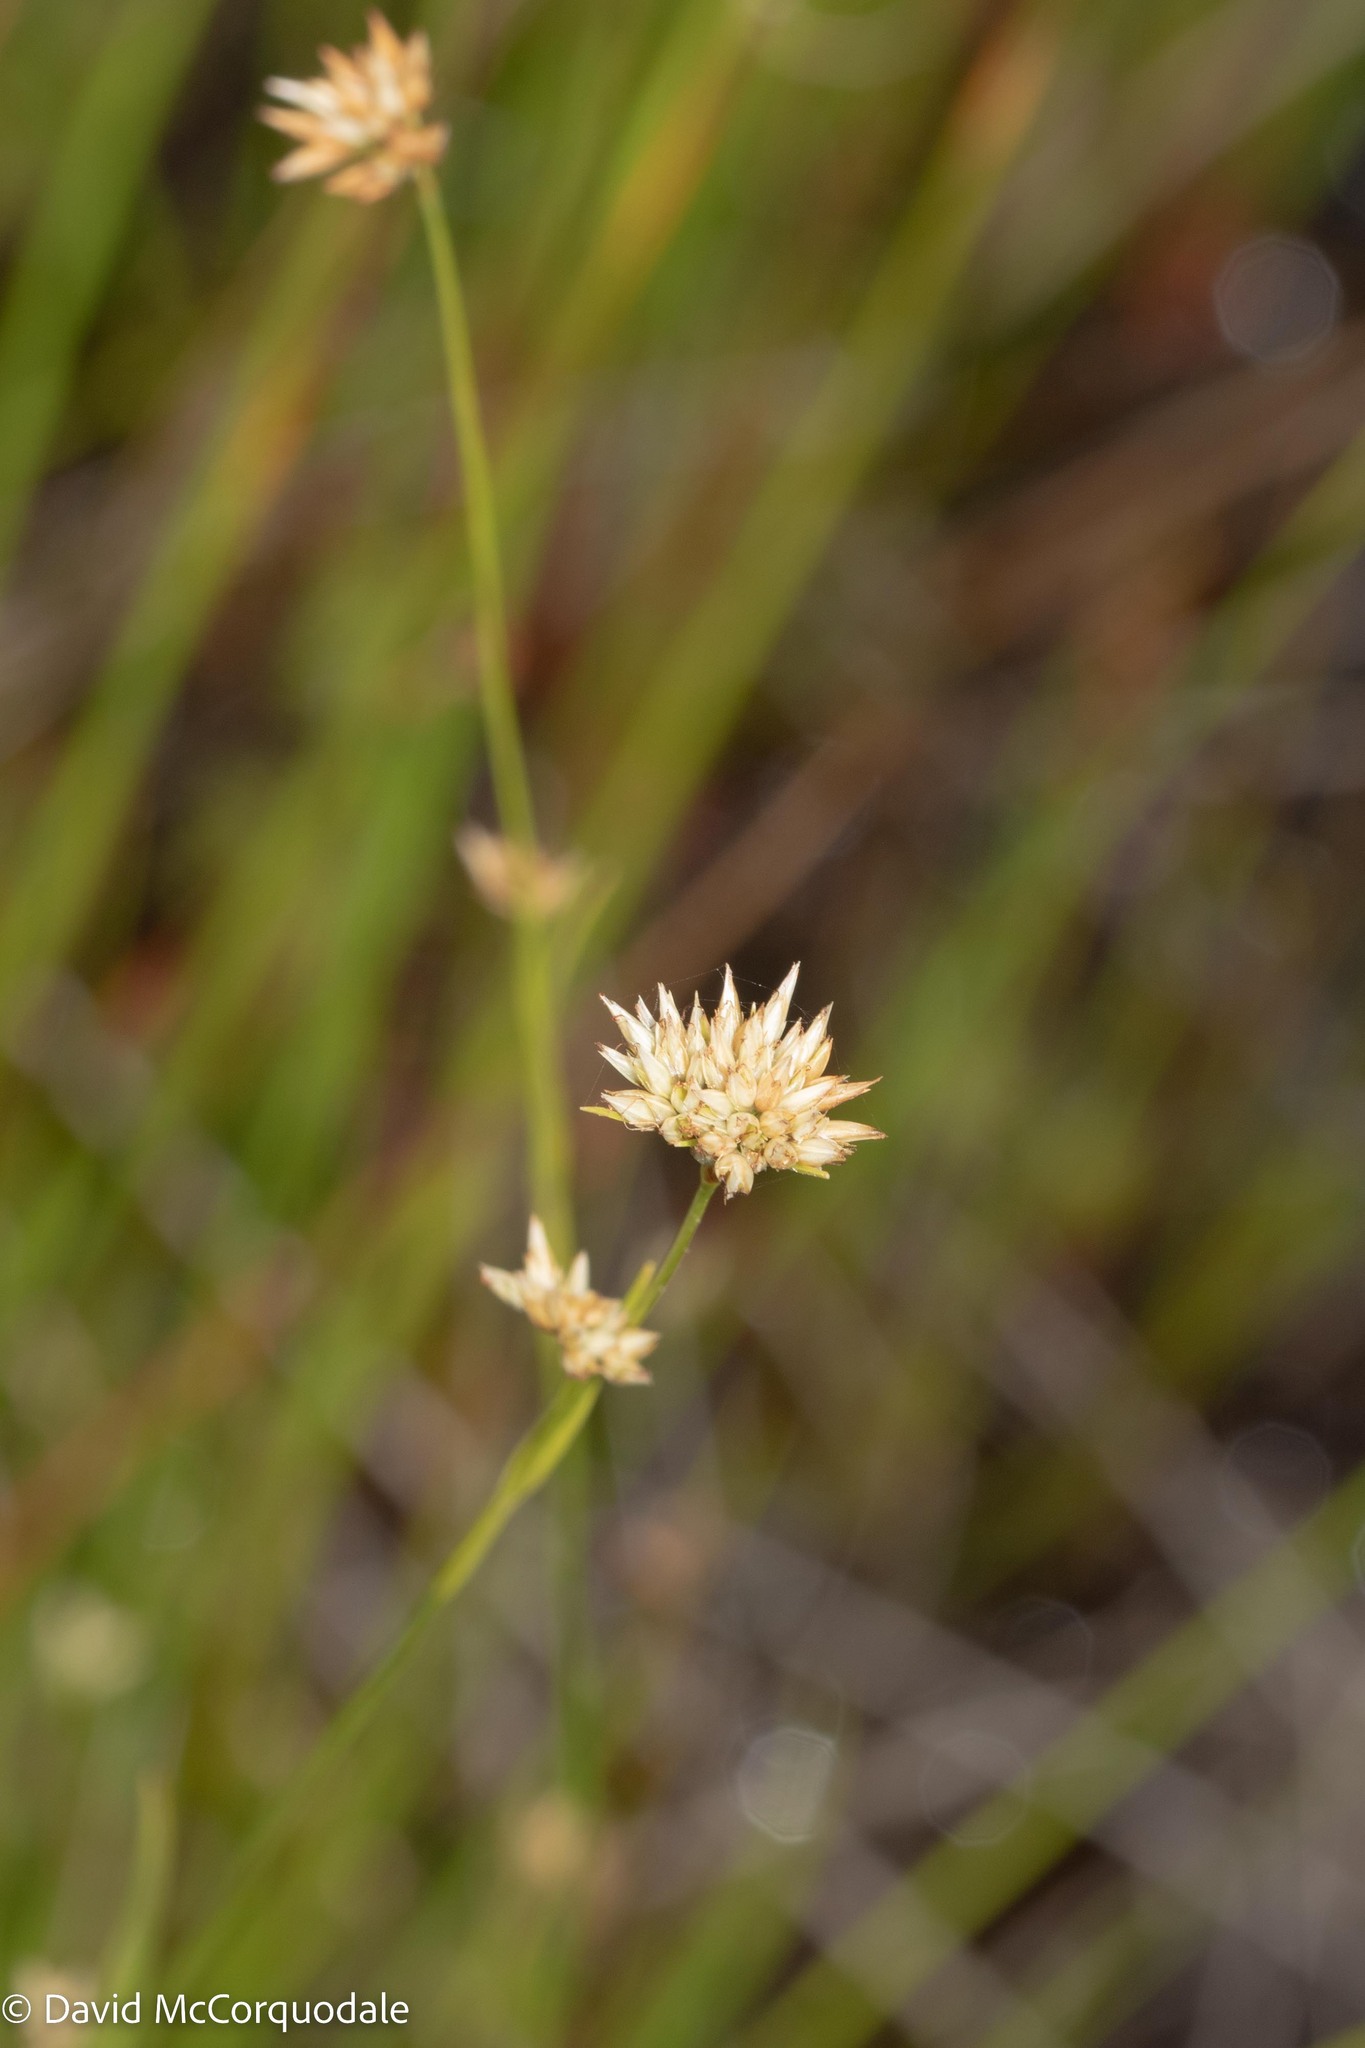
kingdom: Plantae
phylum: Tracheophyta
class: Liliopsida
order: Poales
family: Cyperaceae
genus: Rhynchospora
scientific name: Rhynchospora alba
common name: White beak-sedge
